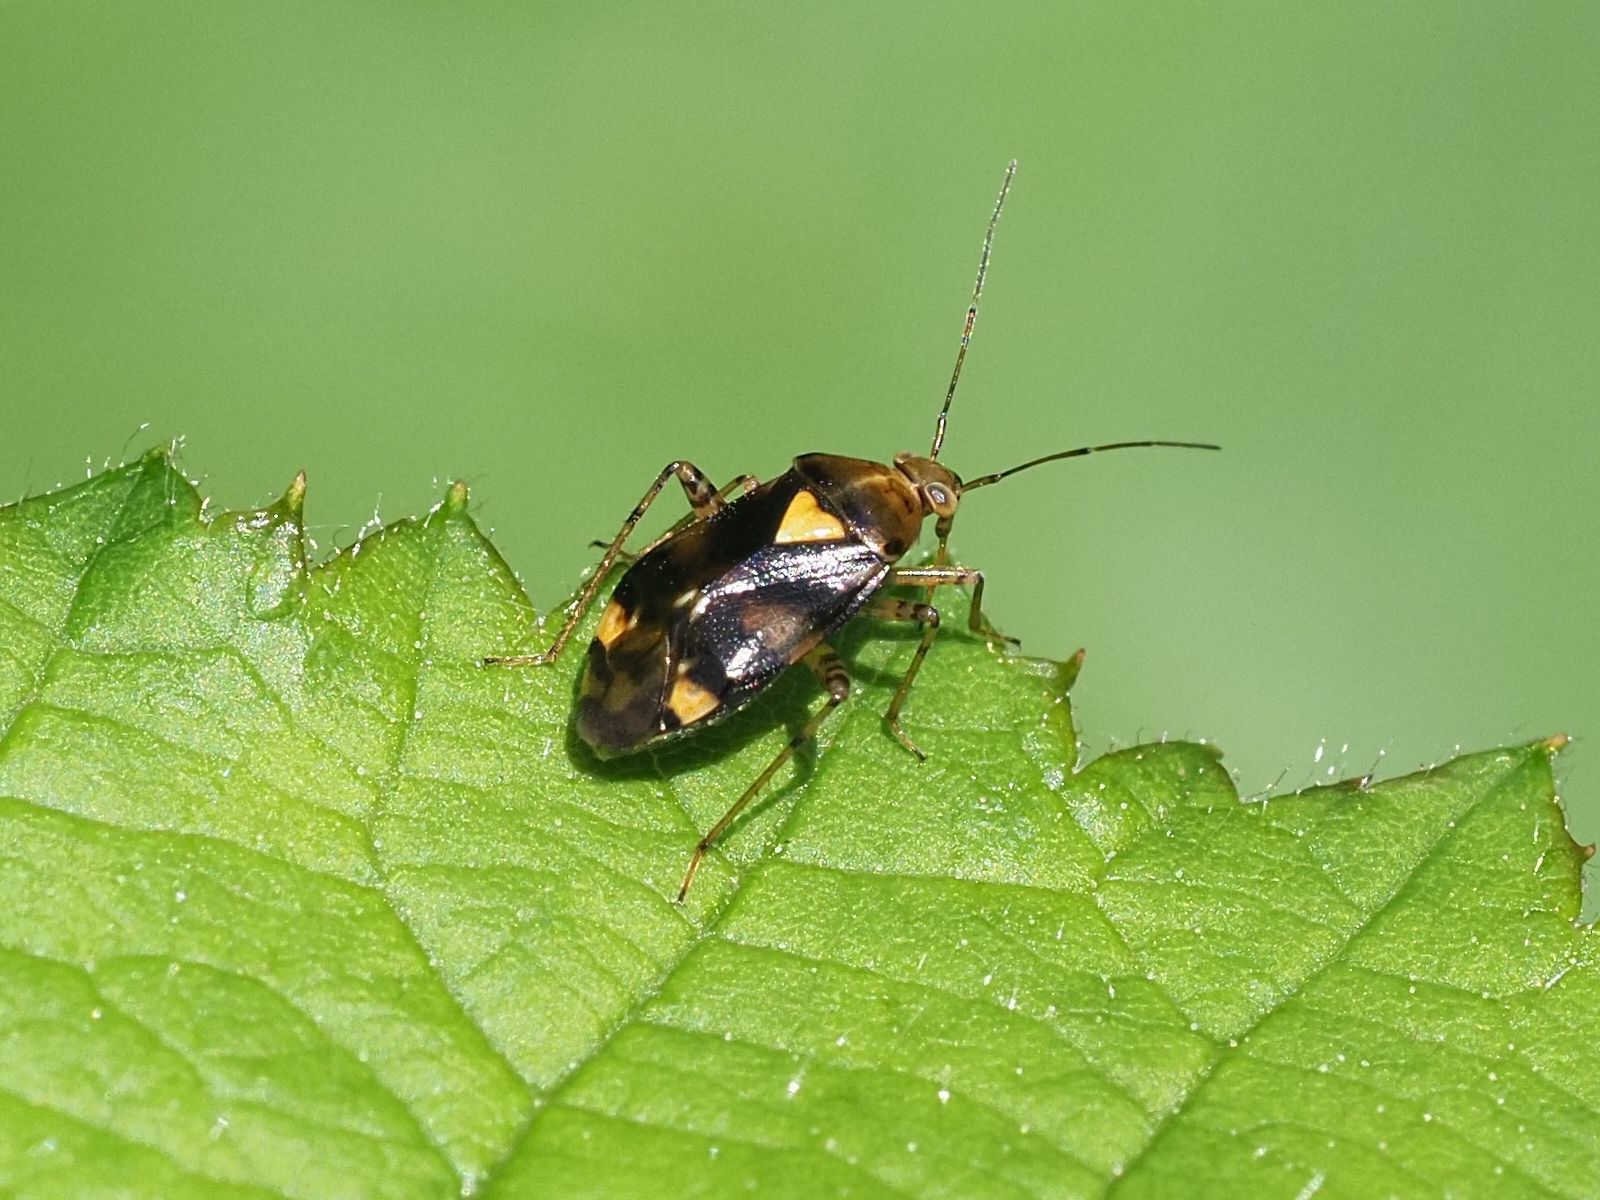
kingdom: Animalia
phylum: Arthropoda
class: Insecta
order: Hemiptera
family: Miridae
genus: Liocoris
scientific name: Liocoris tripustulatus
